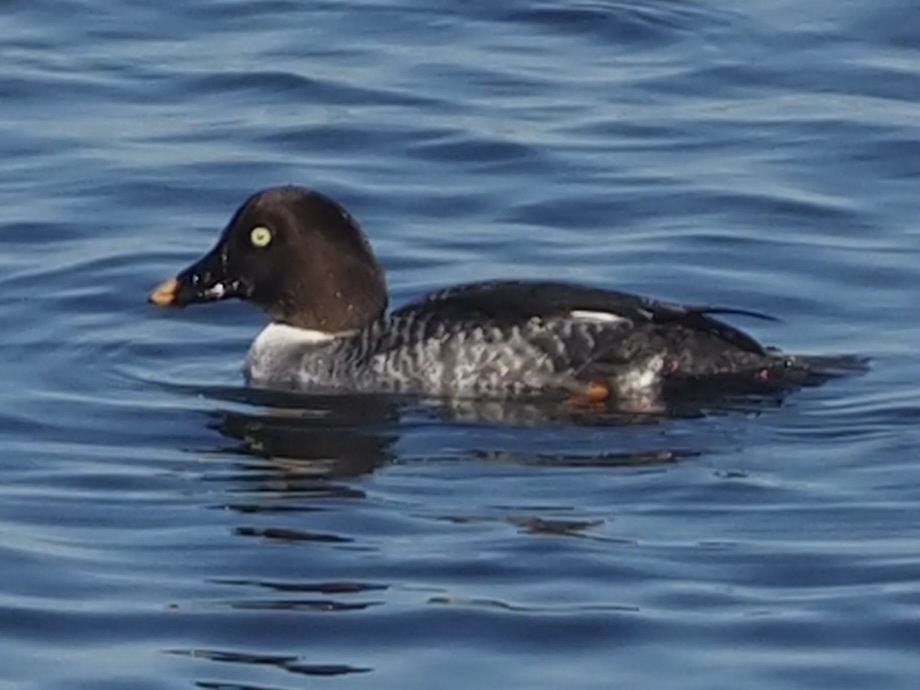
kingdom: Animalia
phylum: Chordata
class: Aves
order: Anseriformes
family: Anatidae
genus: Bucephala
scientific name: Bucephala clangula
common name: Common goldeneye
